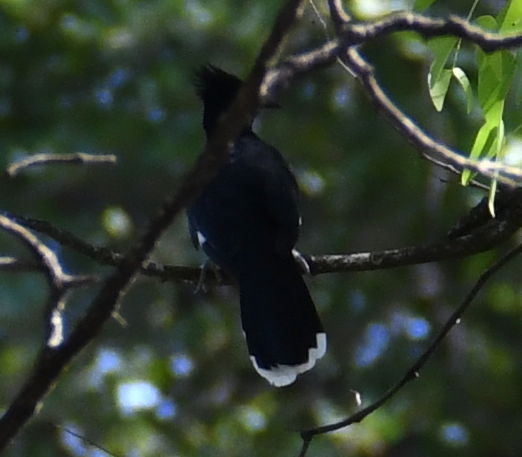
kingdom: Animalia
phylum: Chordata
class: Aves
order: Cuculiformes
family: Cuculidae
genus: Clamator
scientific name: Clamator levaillantii
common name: Levaillant's cuckoo
